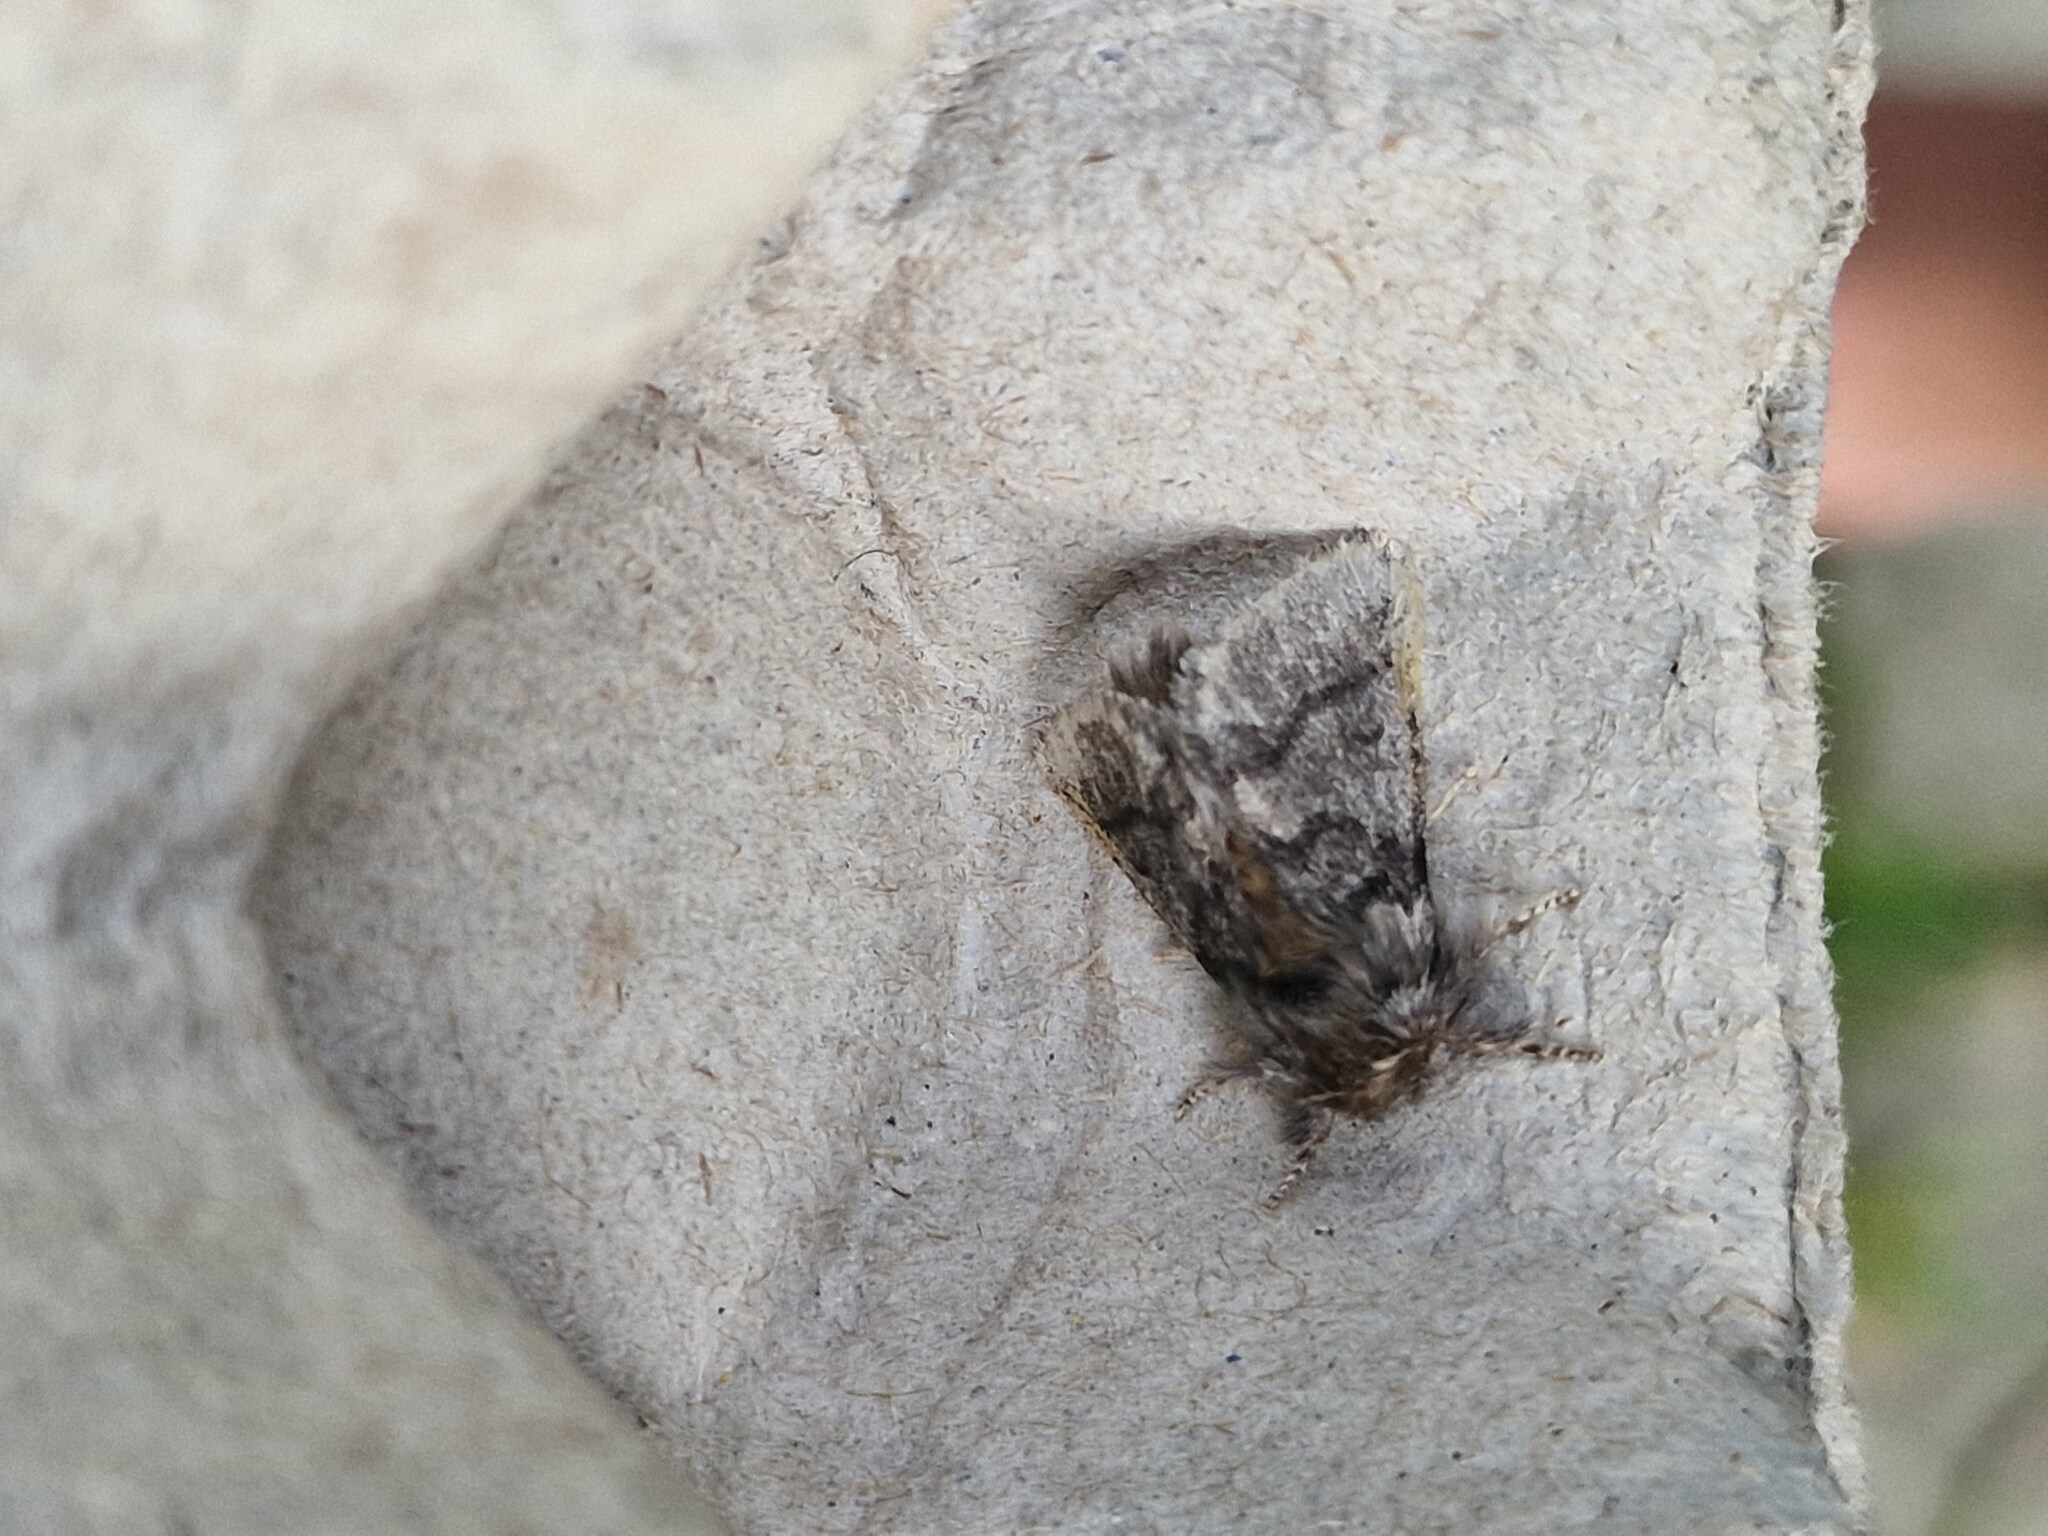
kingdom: Animalia
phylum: Arthropoda
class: Insecta
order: Lepidoptera
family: Notodontidae
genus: Thaumetopoea
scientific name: Thaumetopoea processionea
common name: Oak processionea
